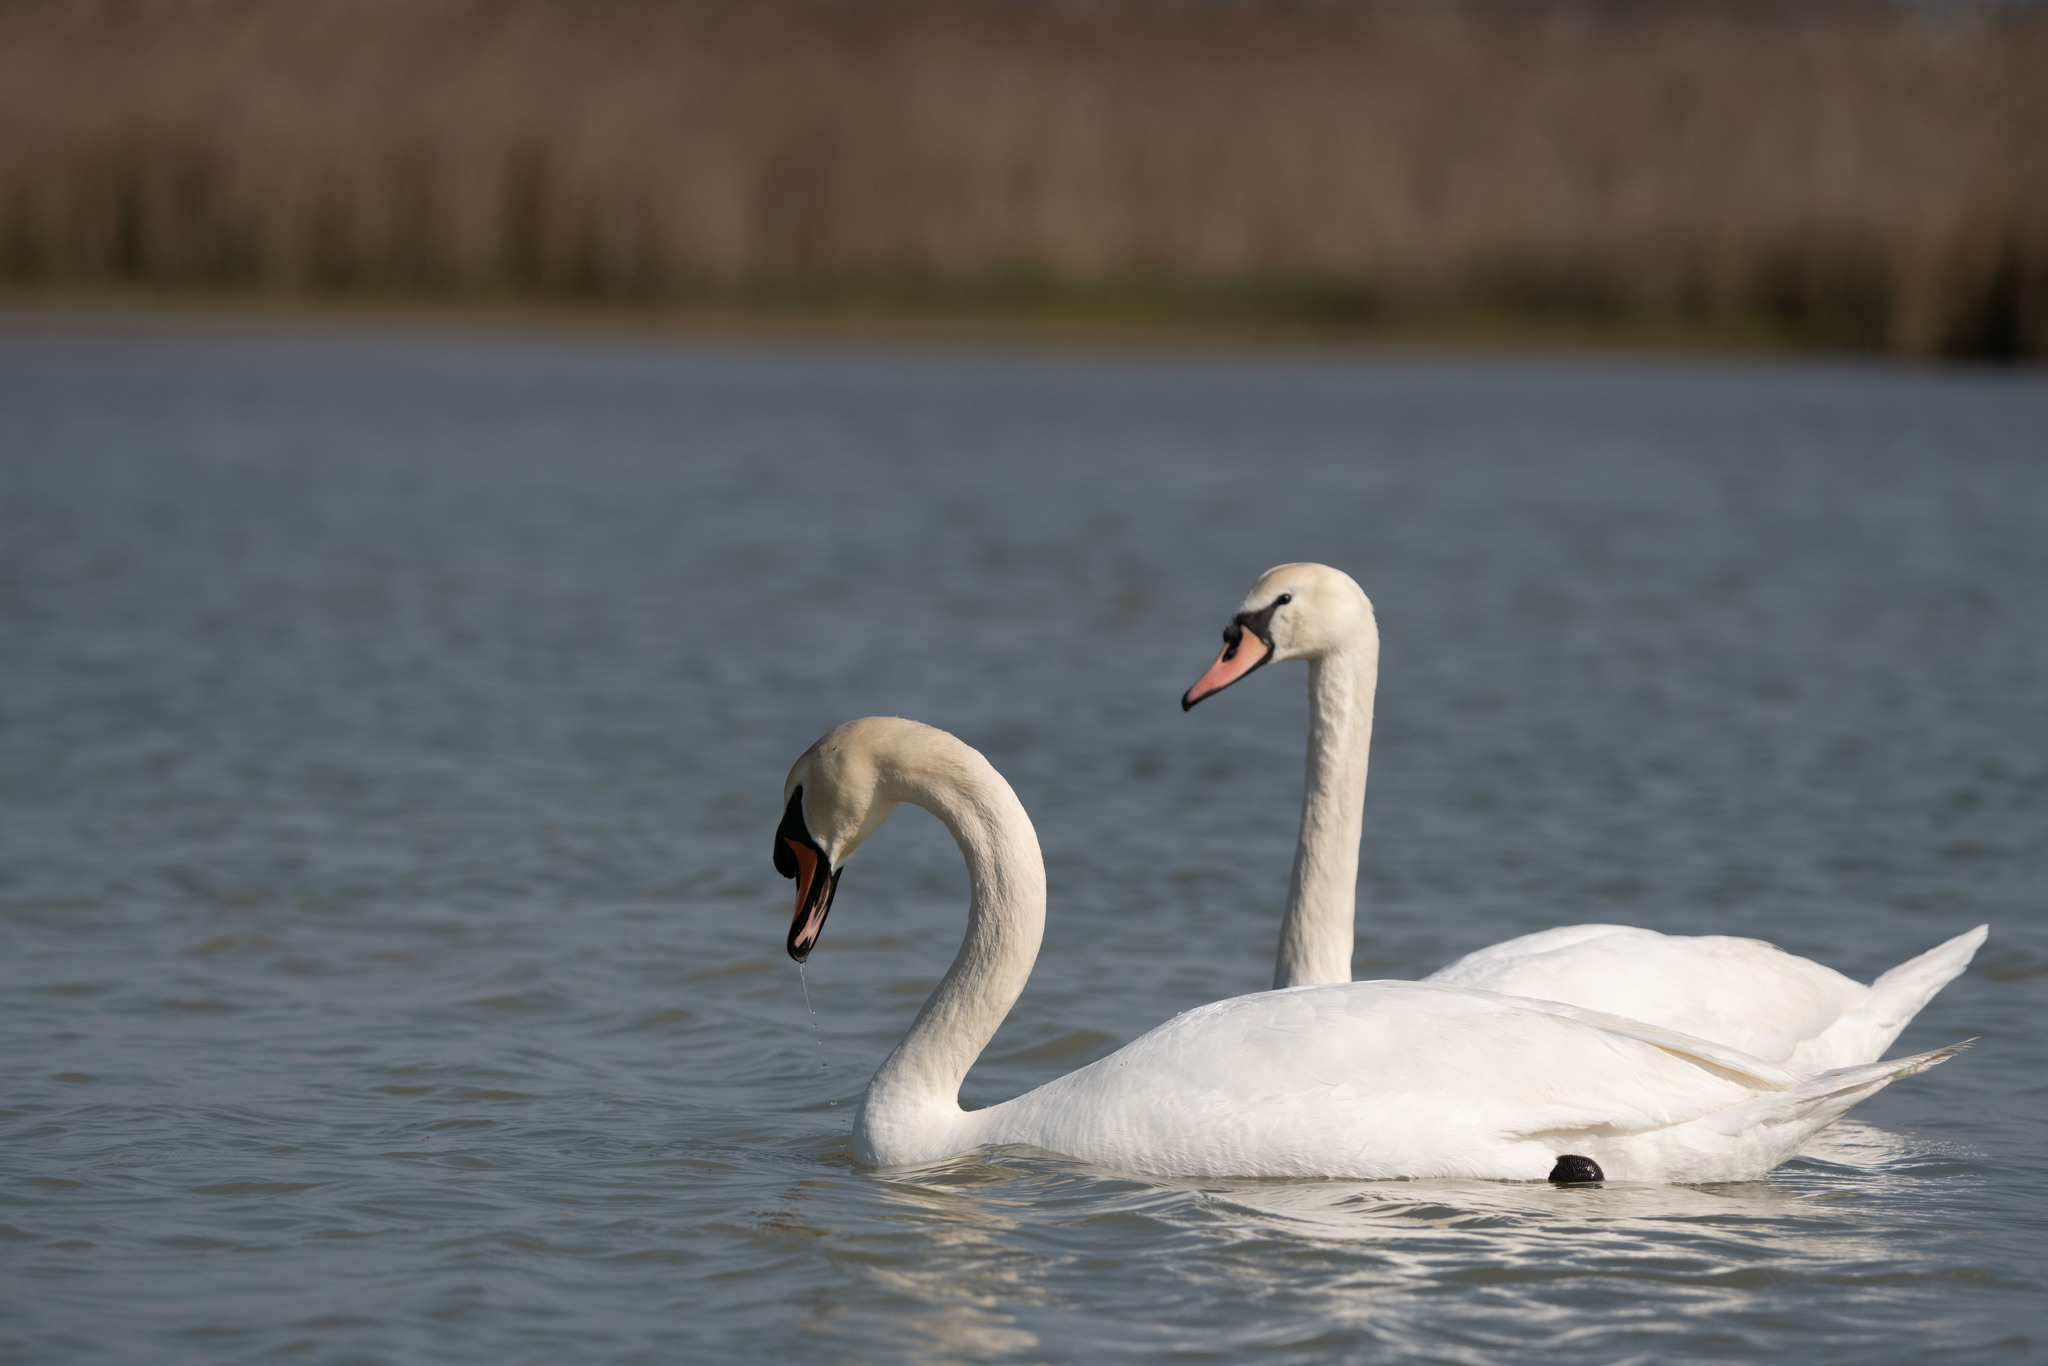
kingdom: Animalia
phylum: Chordata
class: Aves
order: Anseriformes
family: Anatidae
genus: Cygnus
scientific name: Cygnus olor
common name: Mute swan
